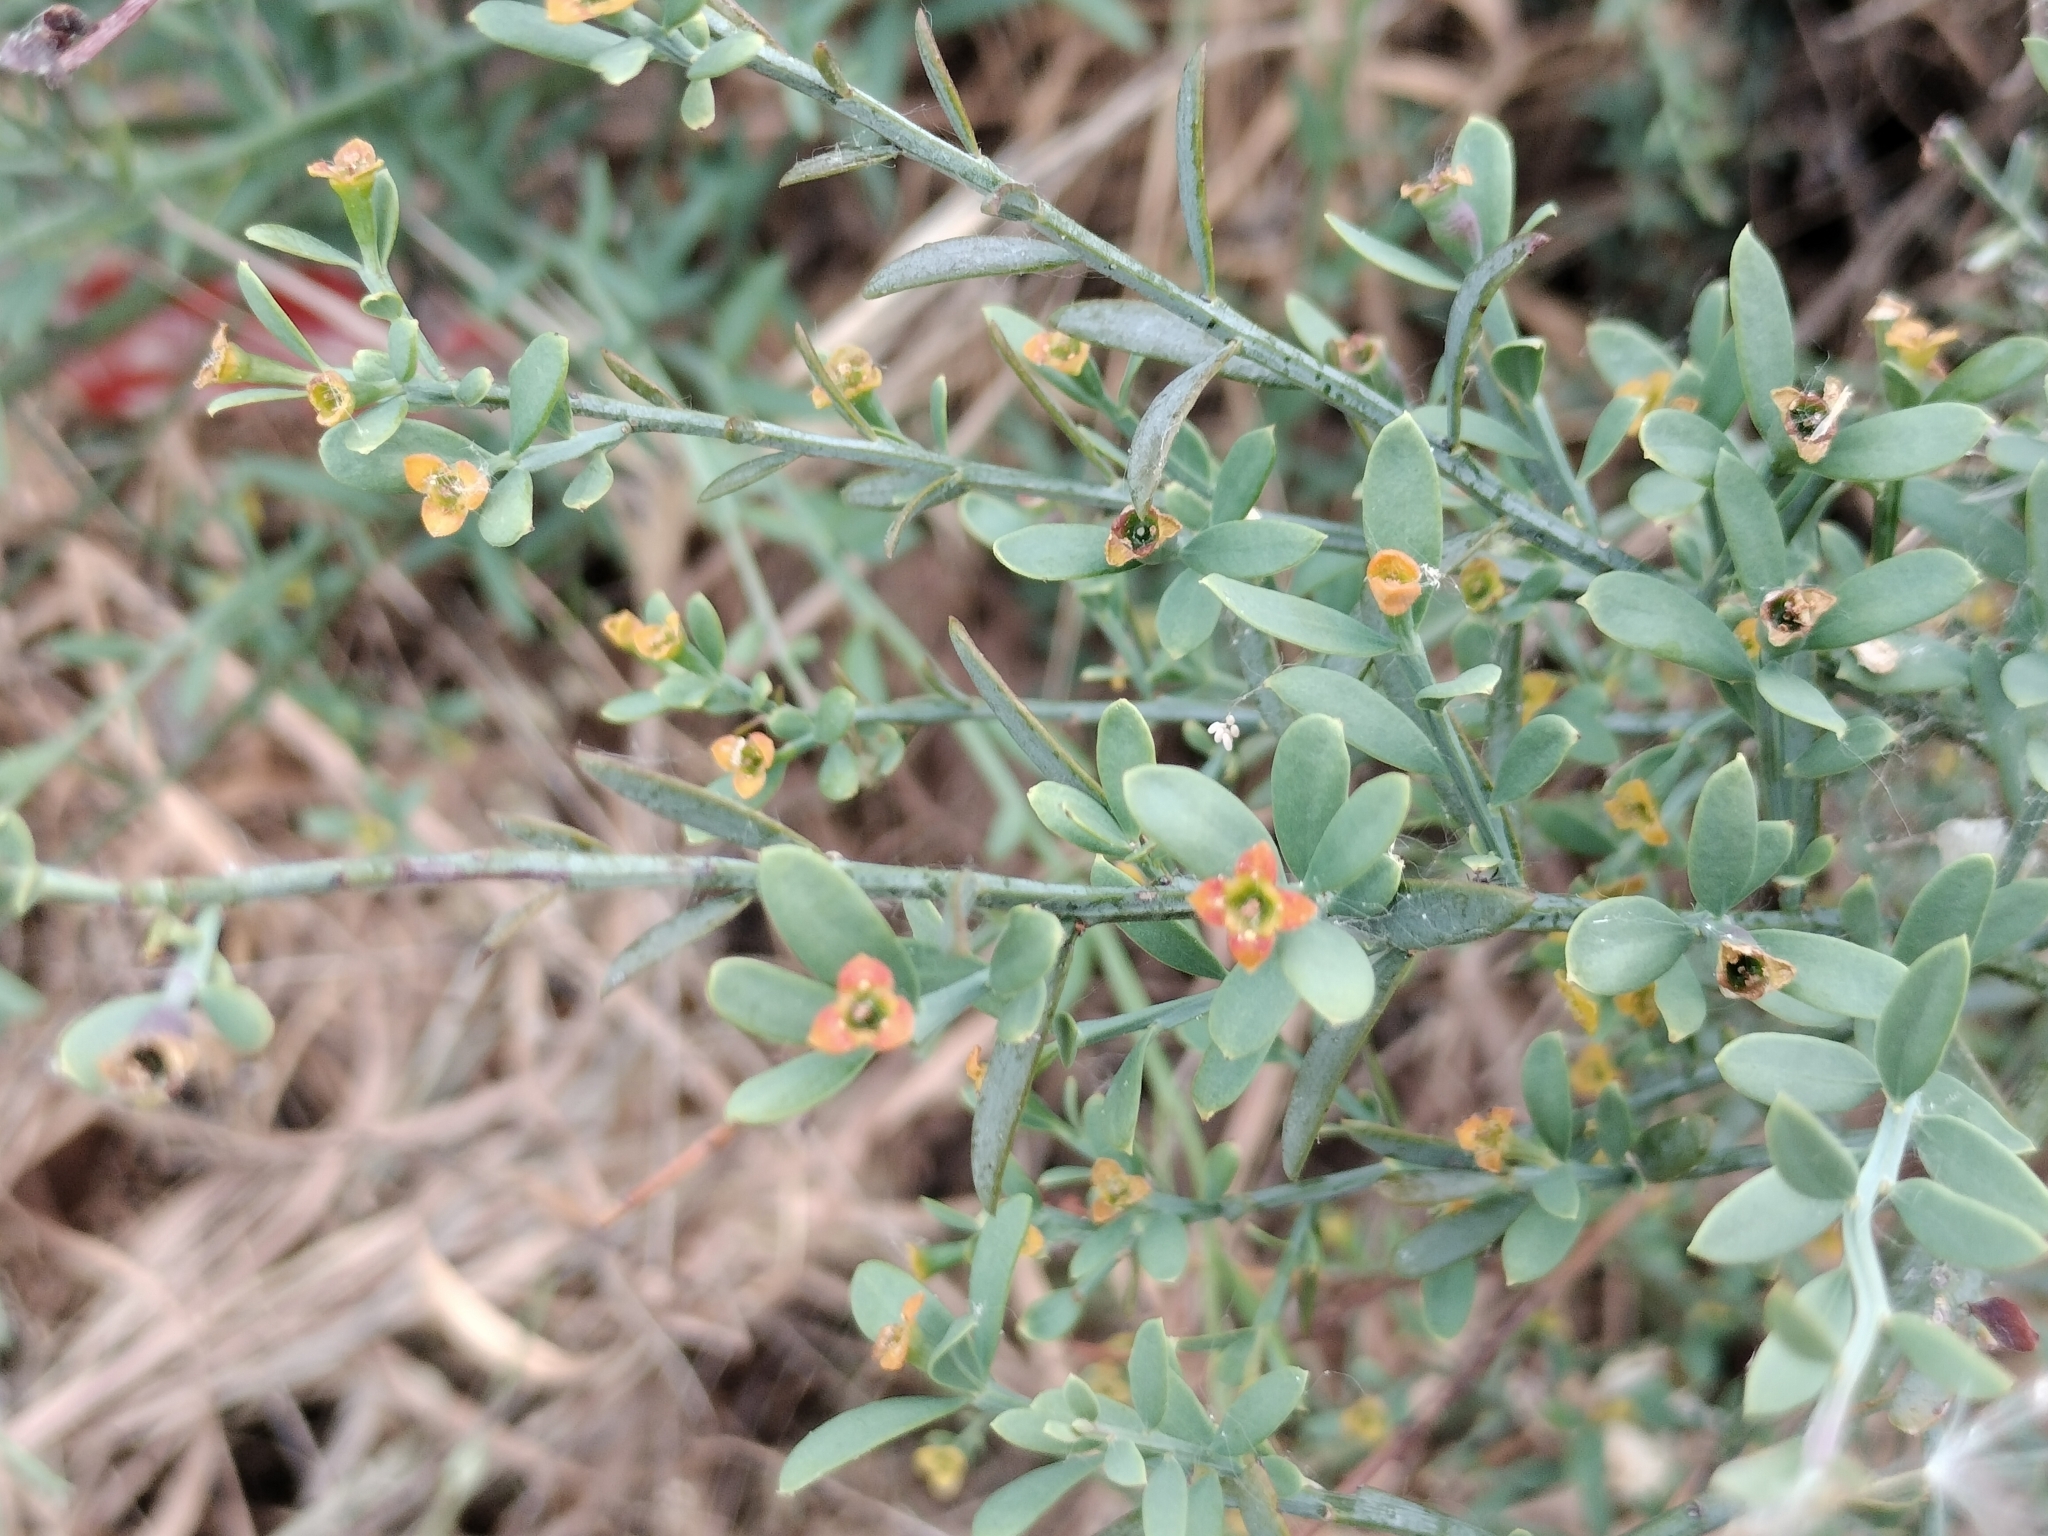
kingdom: Plantae
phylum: Tracheophyta
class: Magnoliopsida
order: Santalales
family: Santalaceae
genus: Osyris
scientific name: Osyris alba
